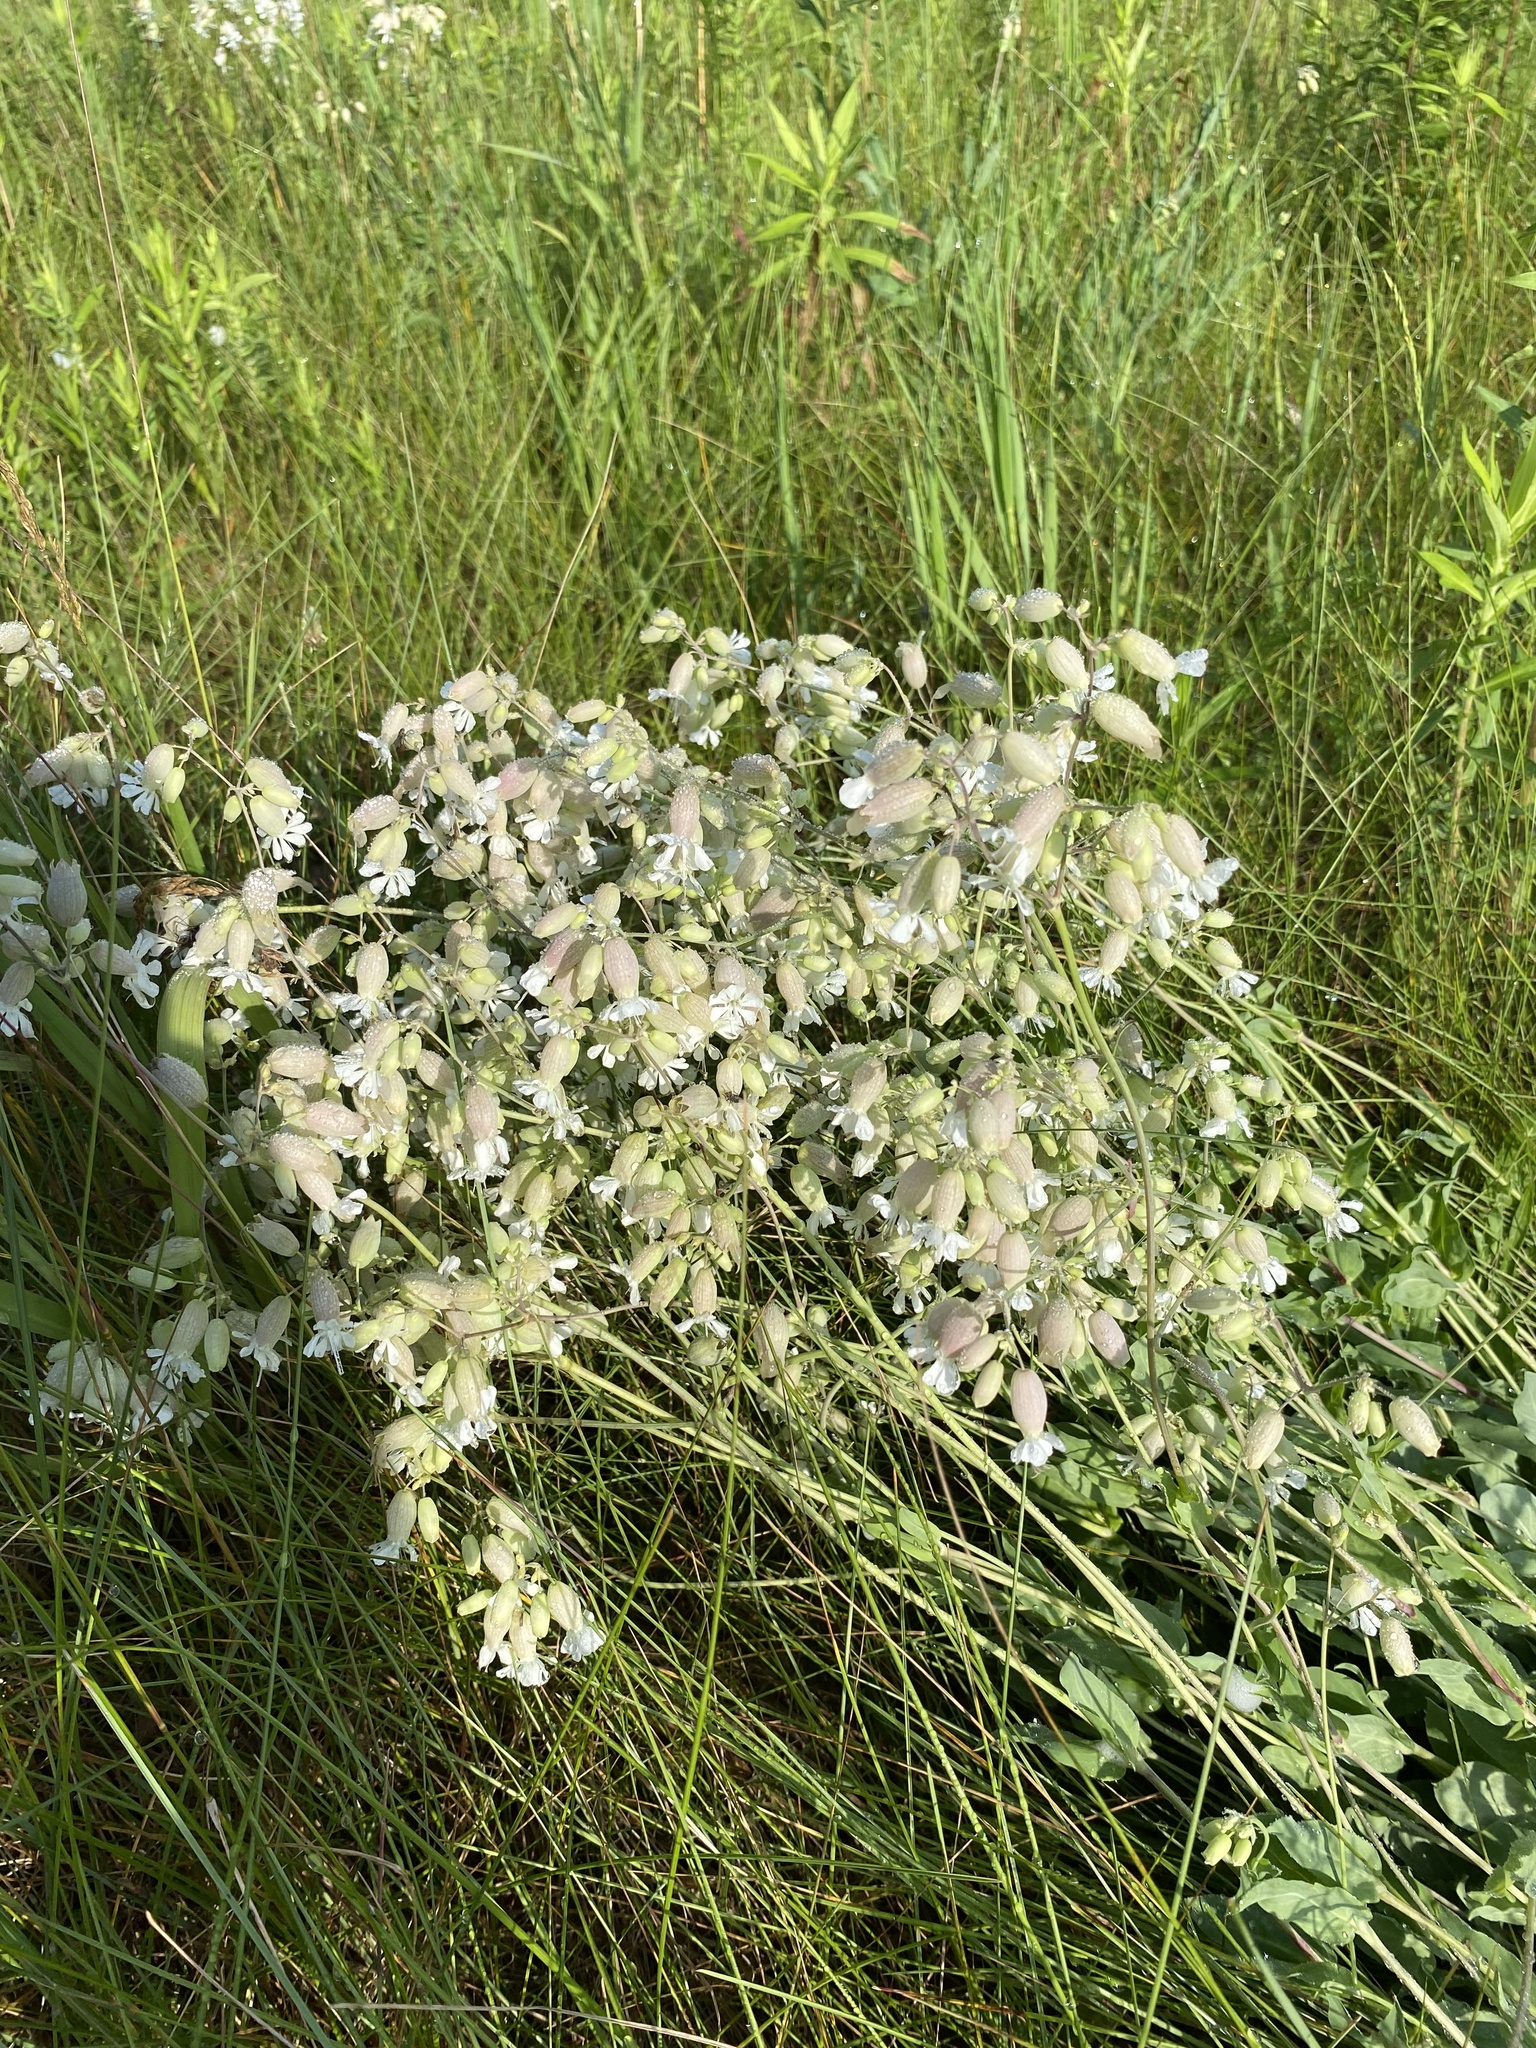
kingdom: Plantae
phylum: Tracheophyta
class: Magnoliopsida
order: Caryophyllales
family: Caryophyllaceae
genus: Silene
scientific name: Silene vulgaris
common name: Bladder campion
